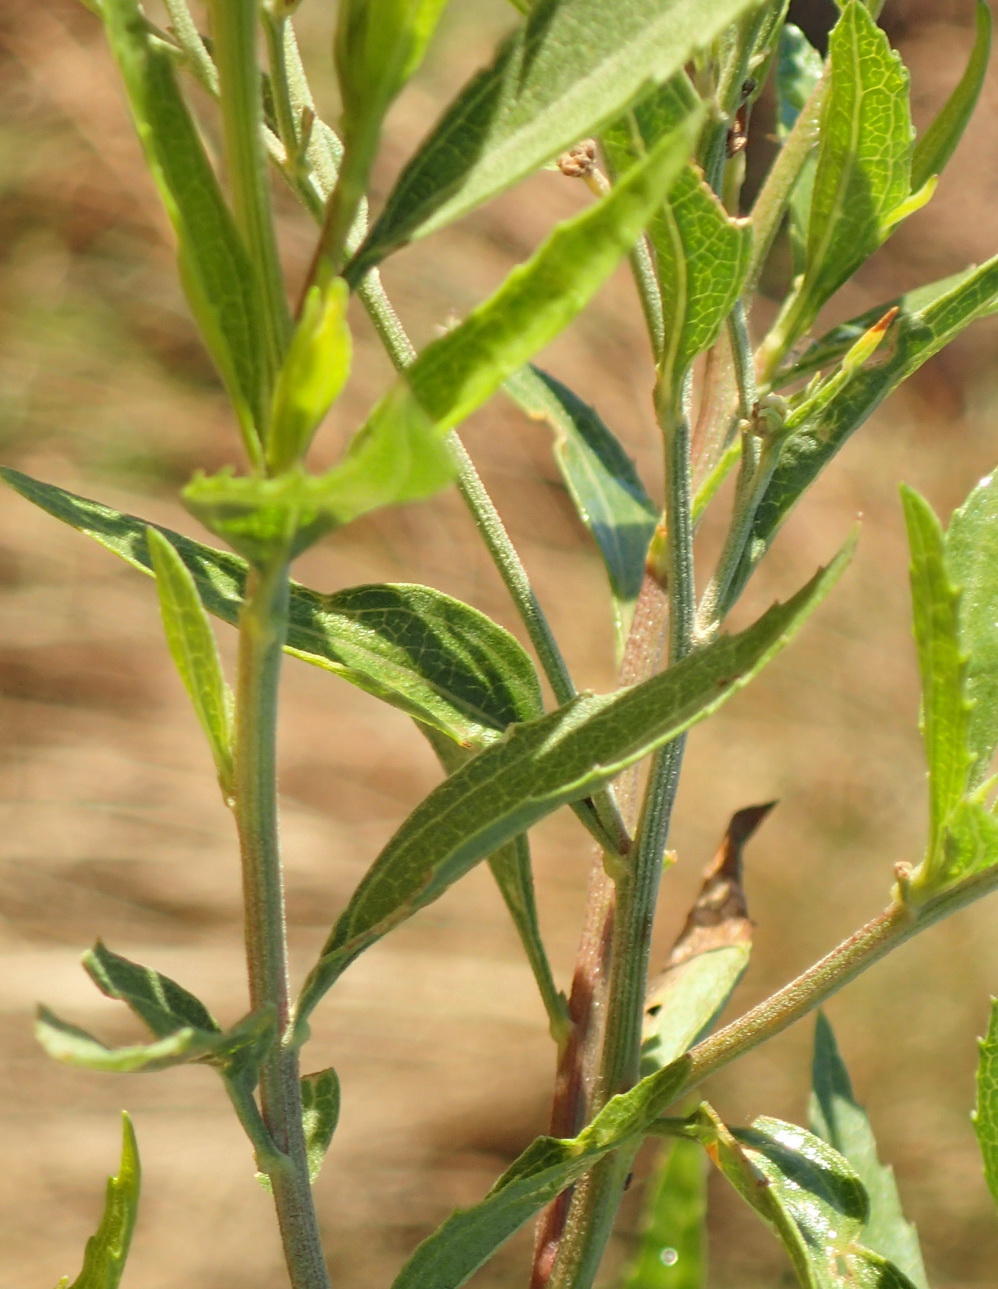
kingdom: Plantae
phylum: Tracheophyta
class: Magnoliopsida
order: Asterales
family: Asteraceae
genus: Nidorella
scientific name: Nidorella ivifolia
